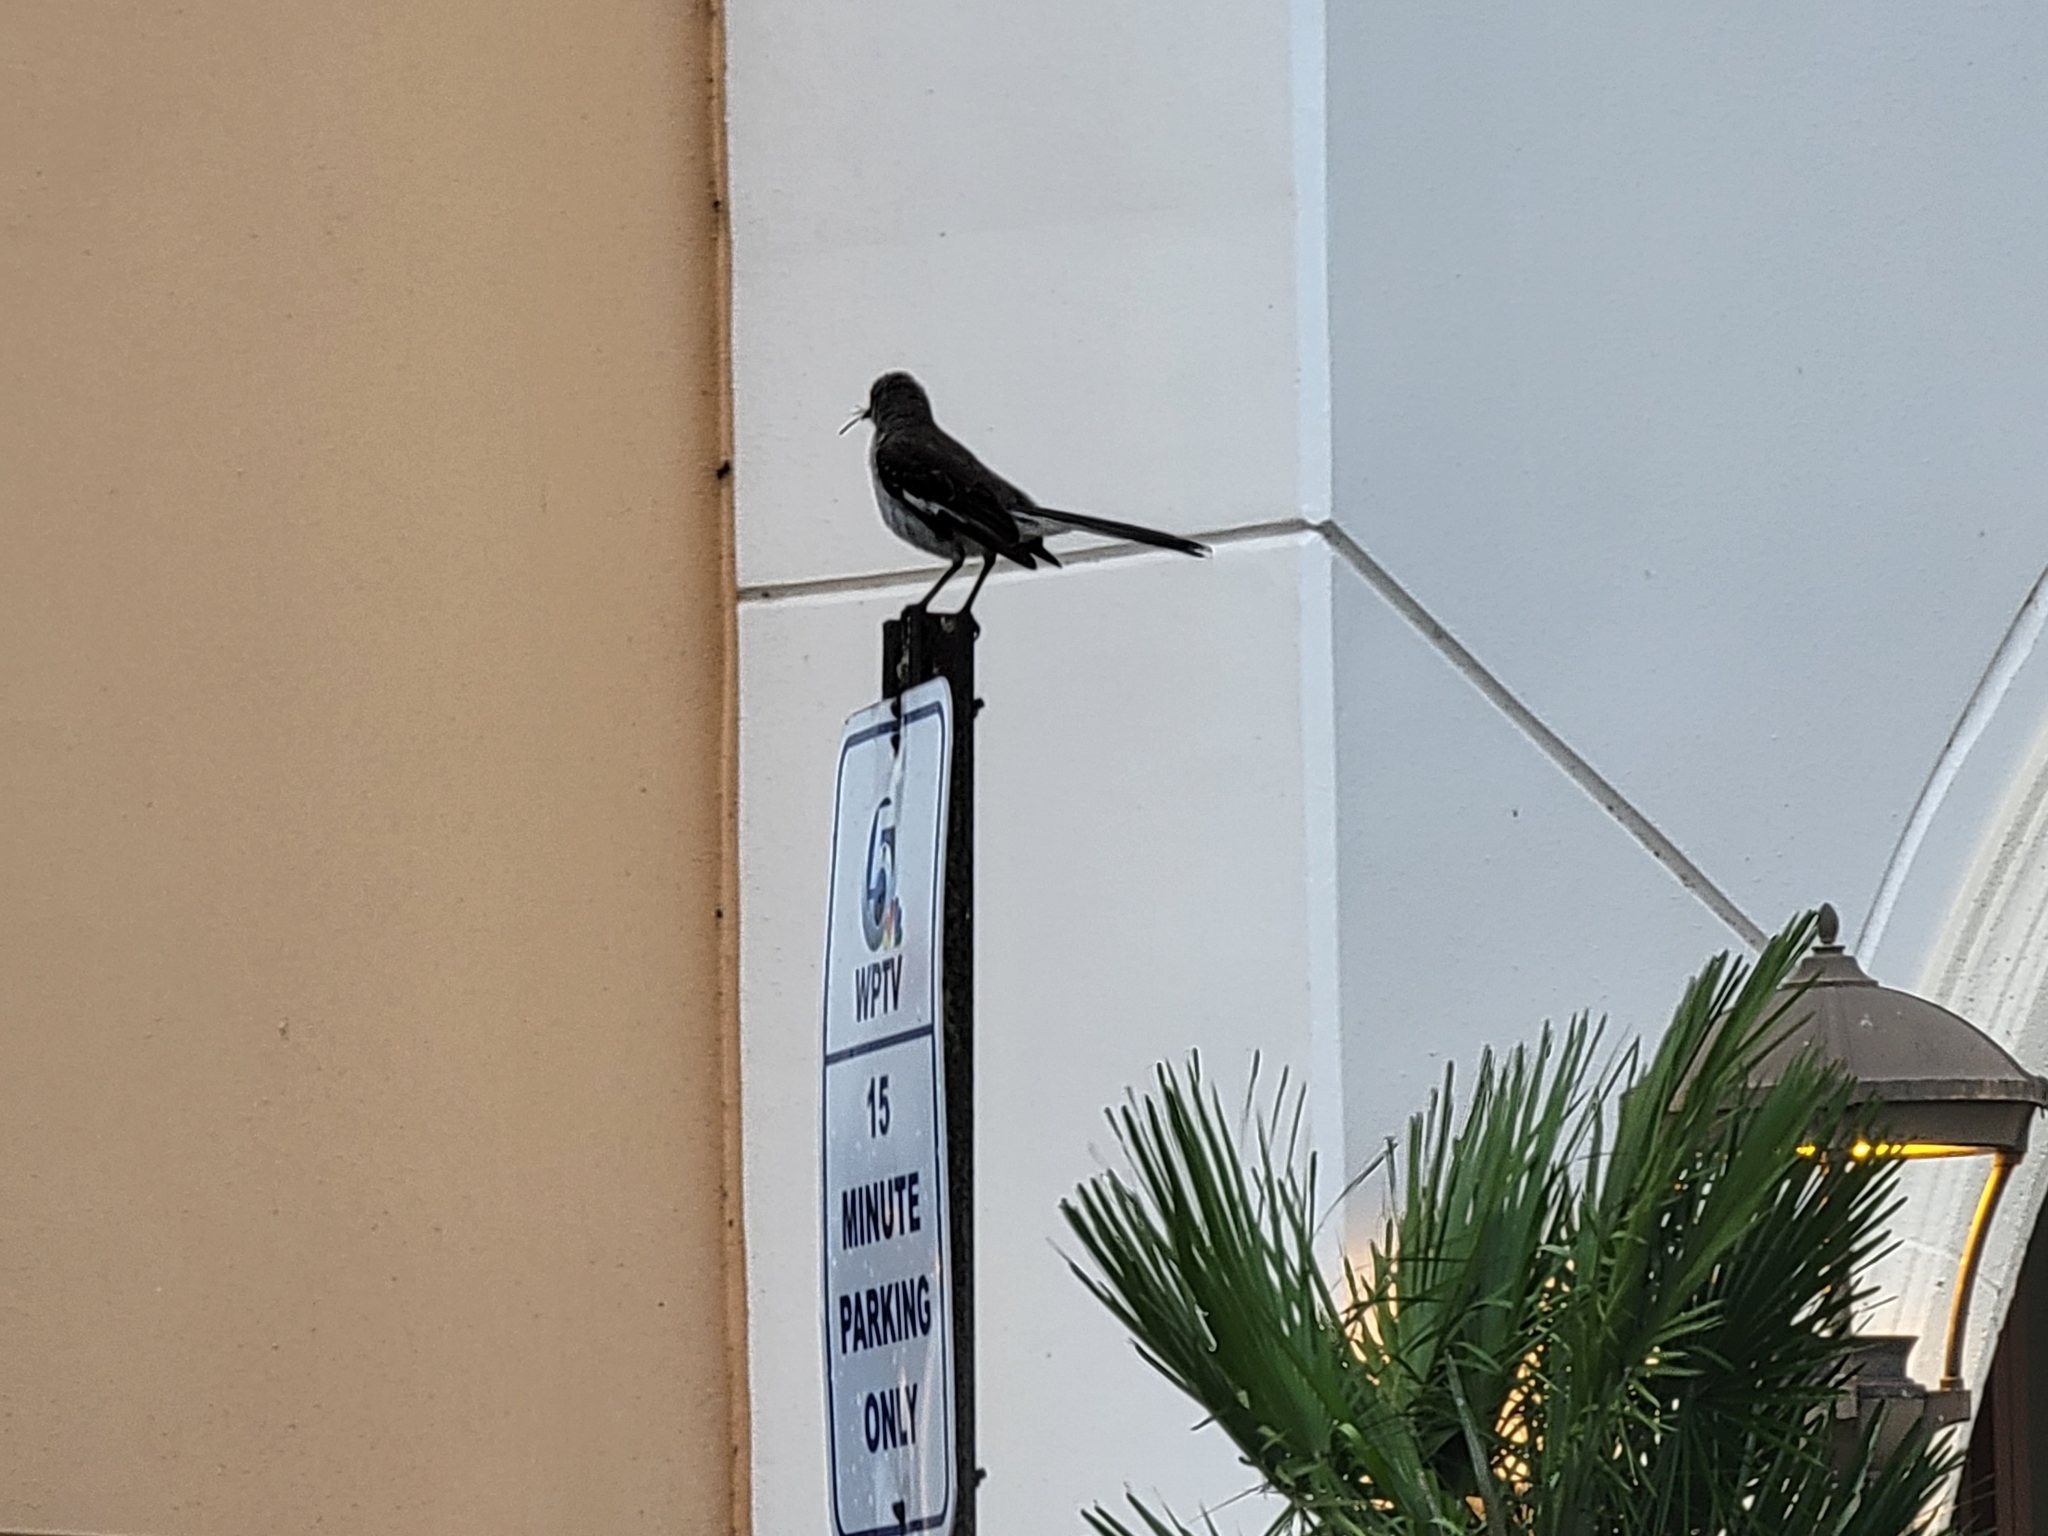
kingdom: Animalia
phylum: Chordata
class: Aves
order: Passeriformes
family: Mimidae
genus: Mimus
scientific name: Mimus polyglottos
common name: Northern mockingbird
